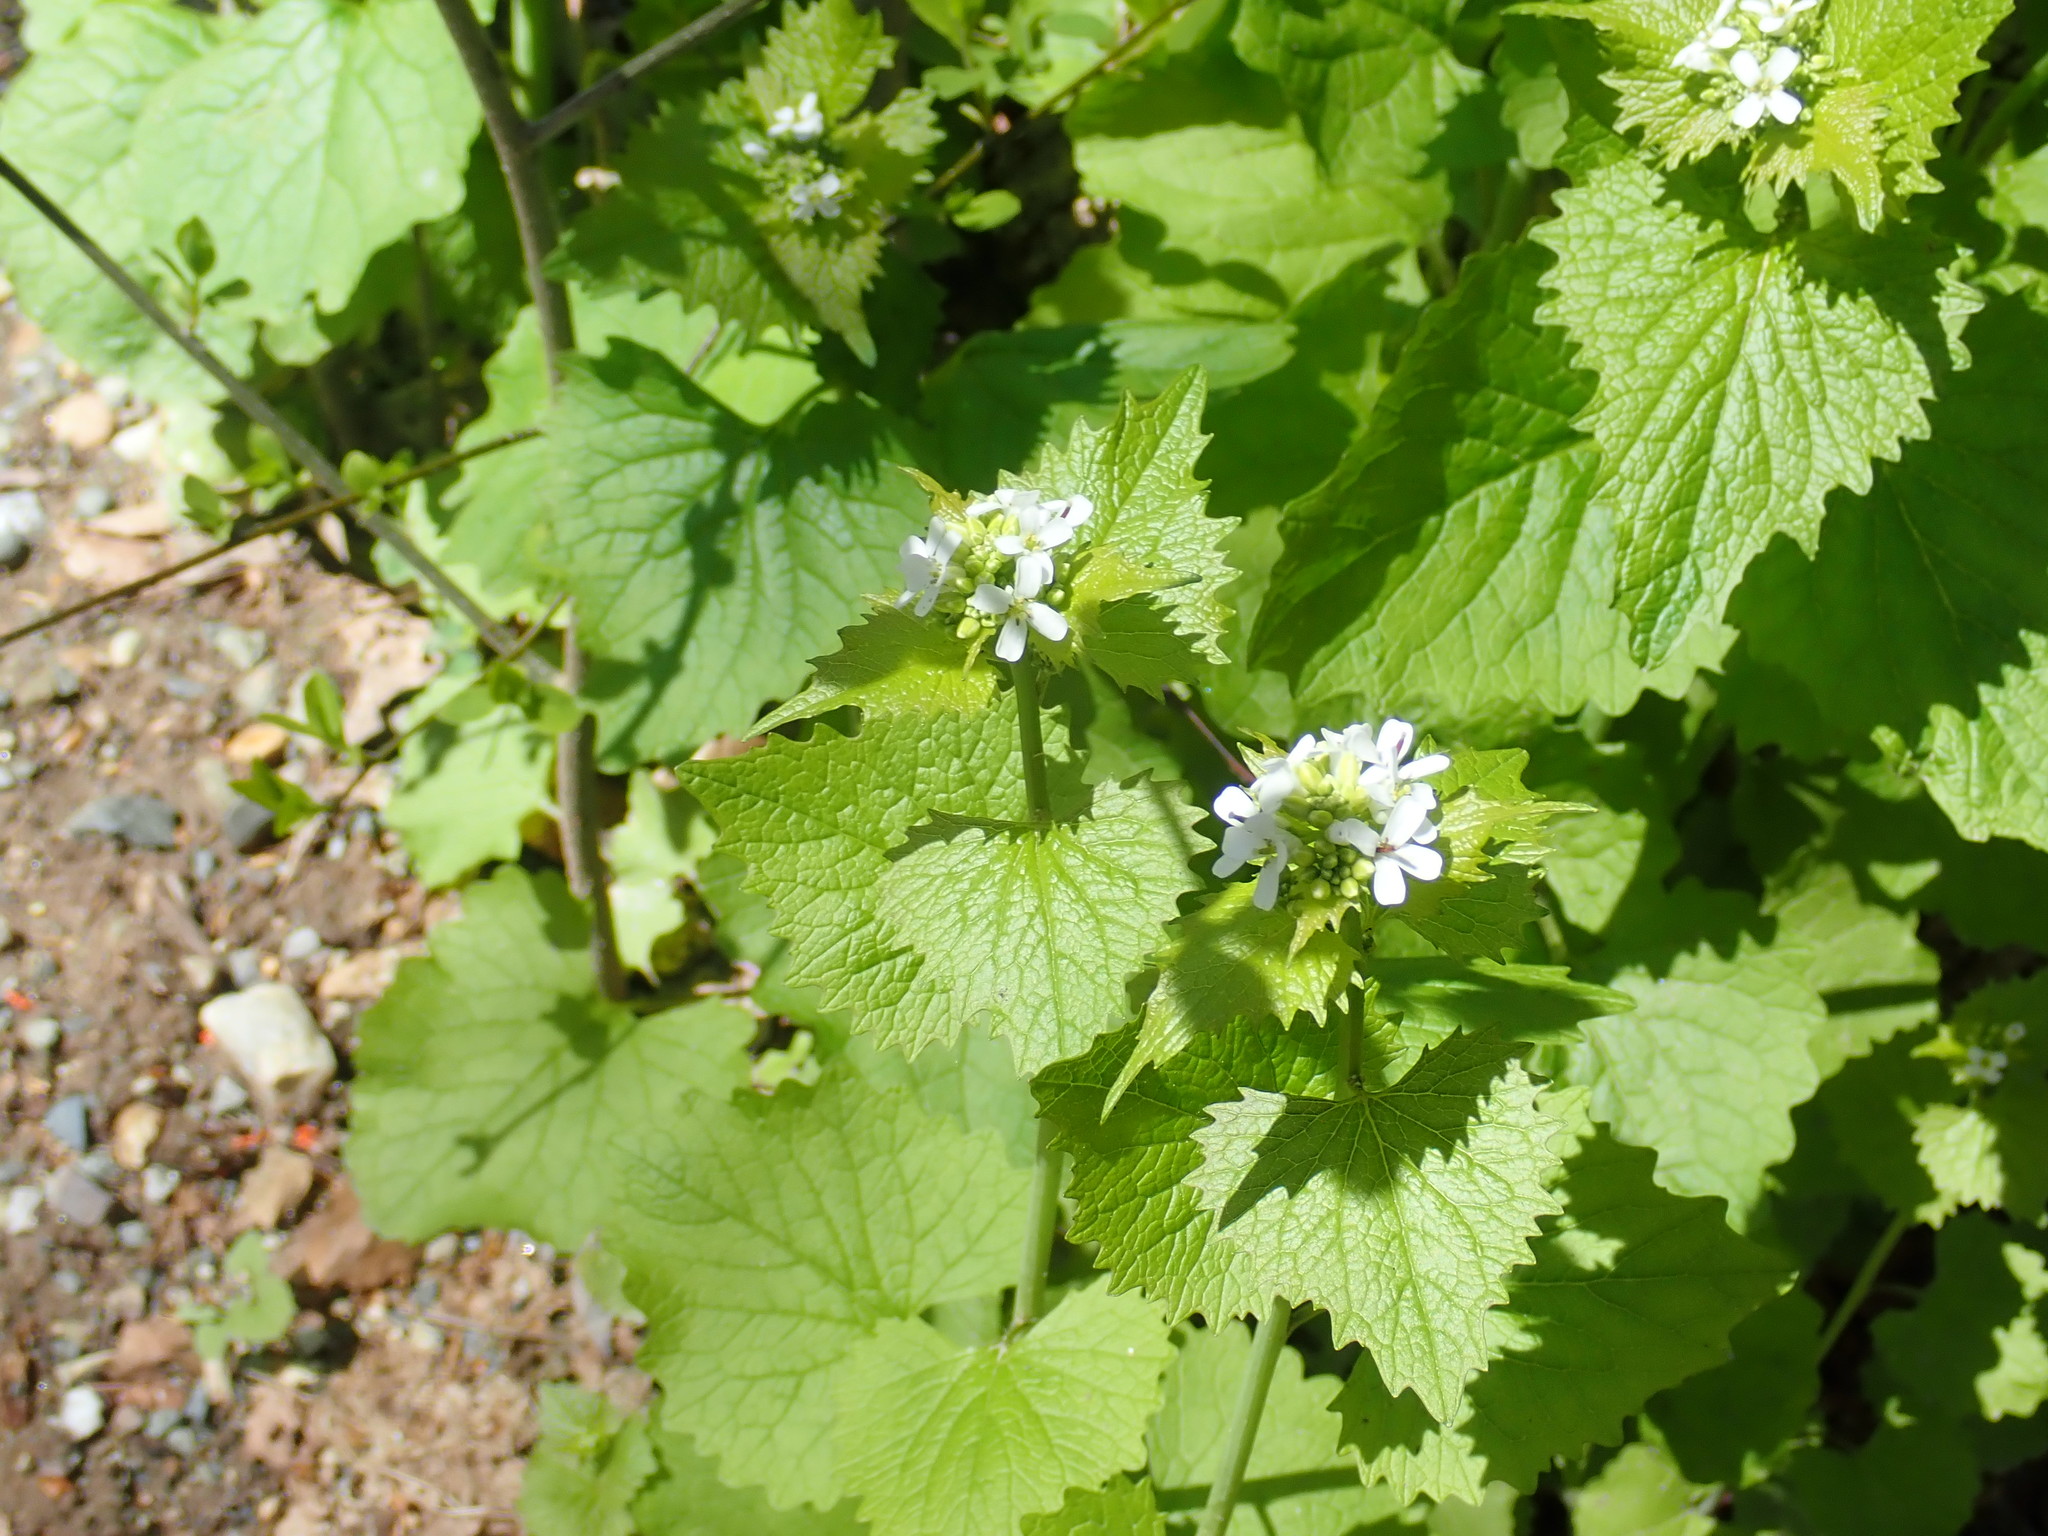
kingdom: Plantae
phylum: Tracheophyta
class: Magnoliopsida
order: Brassicales
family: Brassicaceae
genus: Alliaria
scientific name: Alliaria petiolata
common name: Garlic mustard
